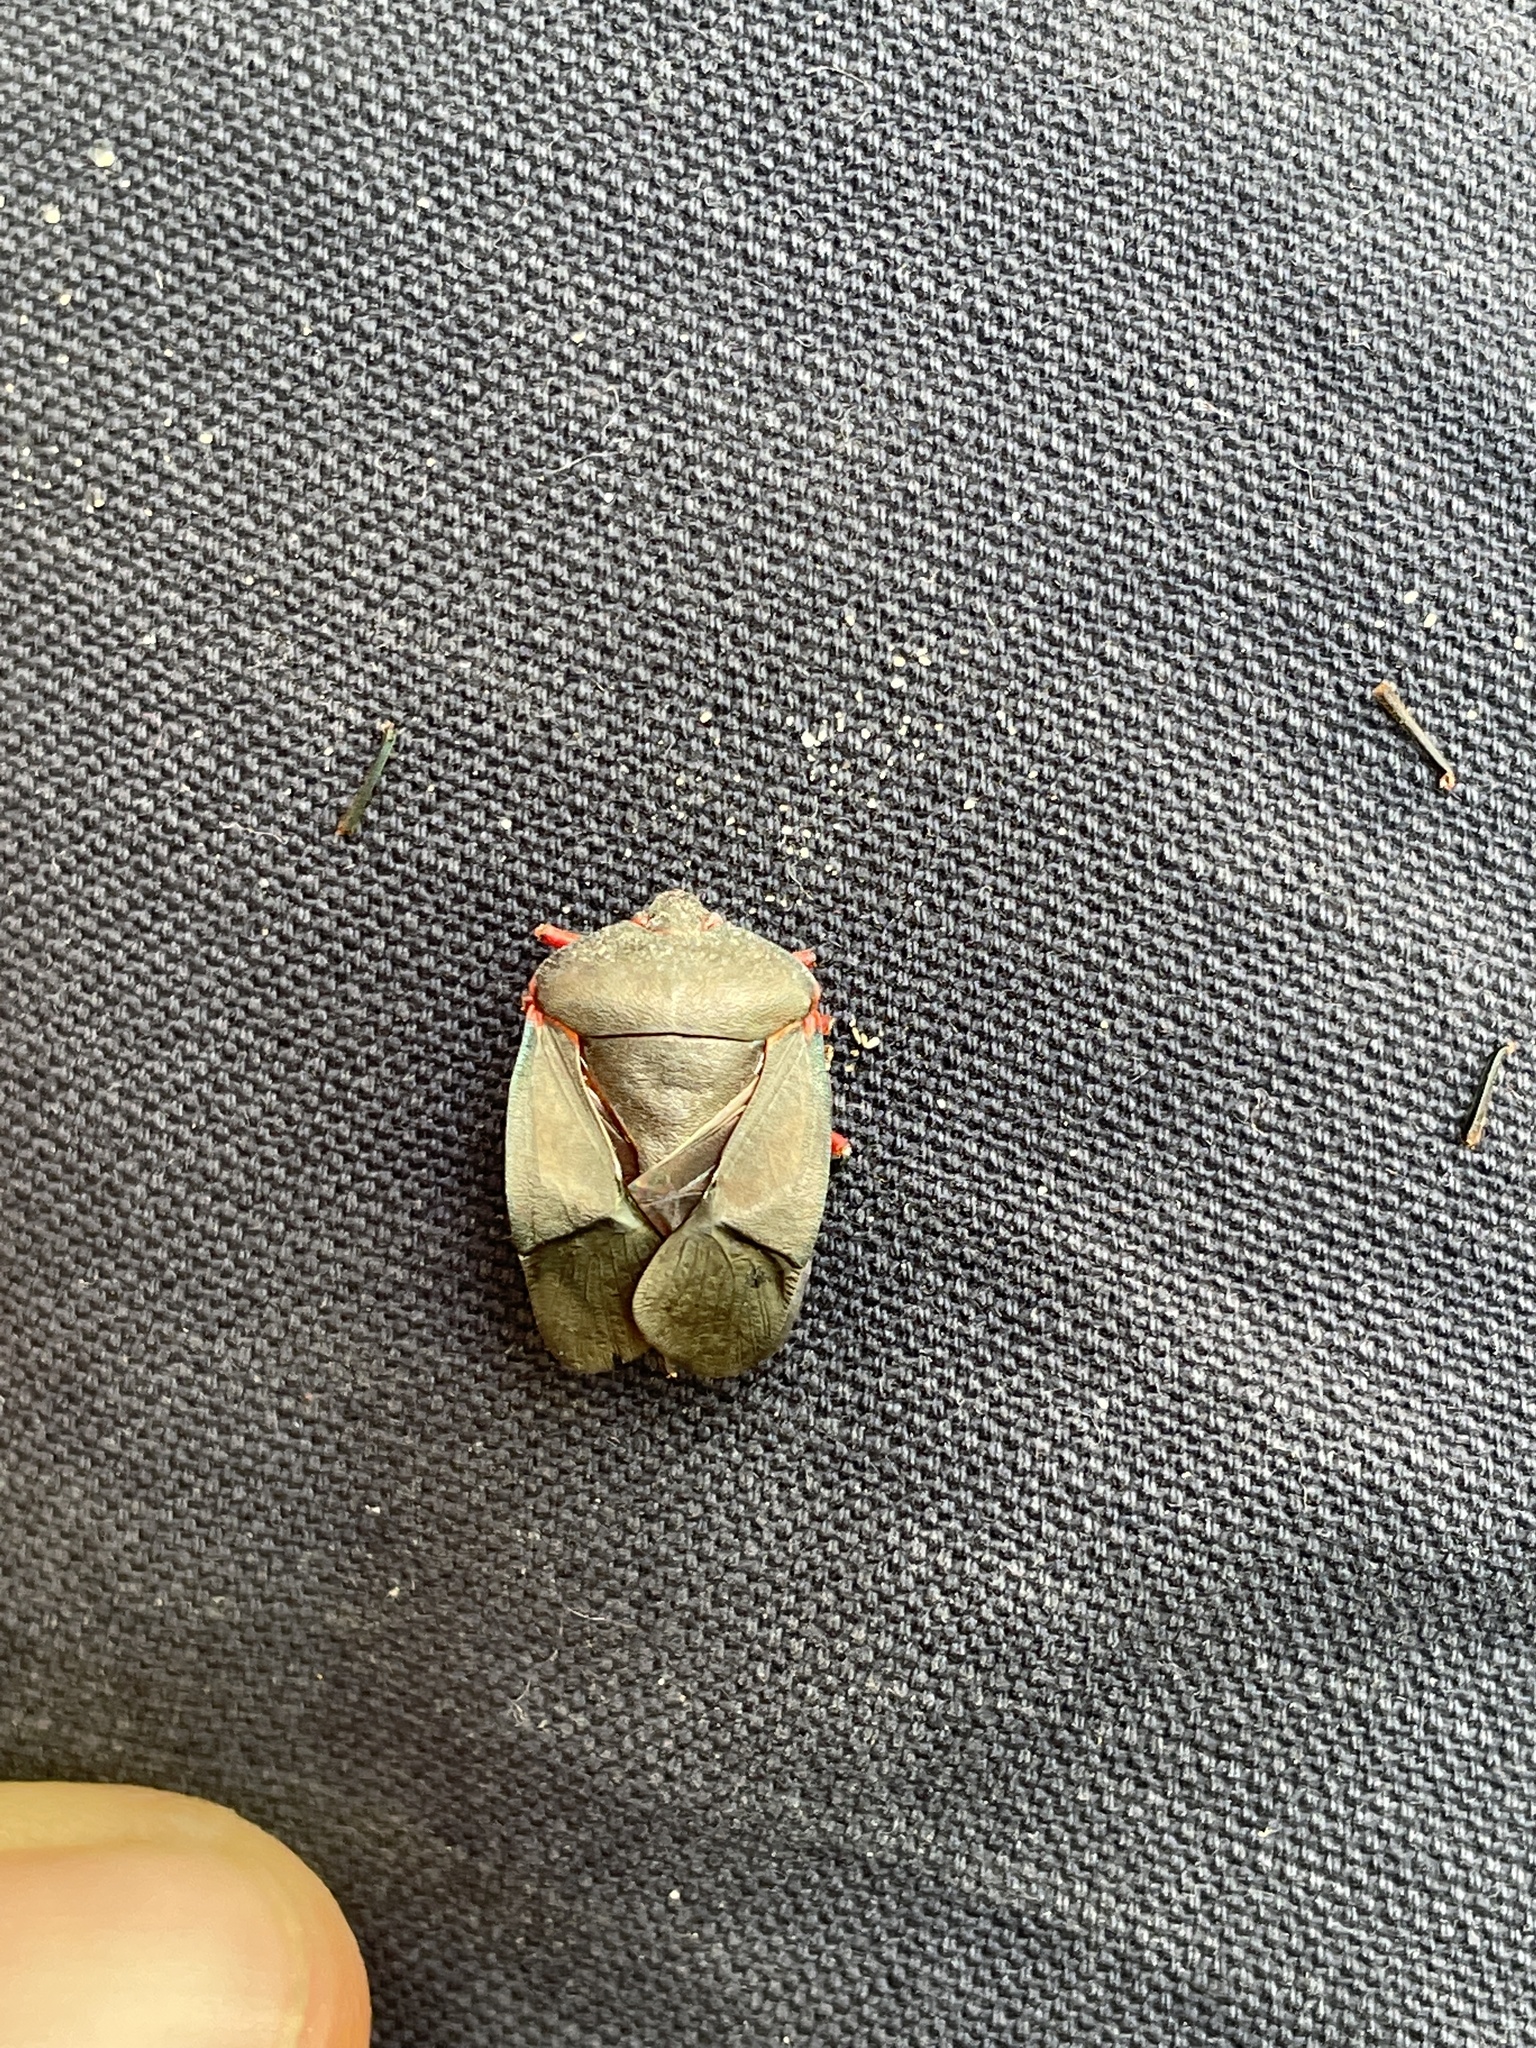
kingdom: Animalia
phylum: Arthropoda
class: Insecta
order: Hemiptera
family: Pentatomidae
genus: Caura
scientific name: Caura rufiventris
